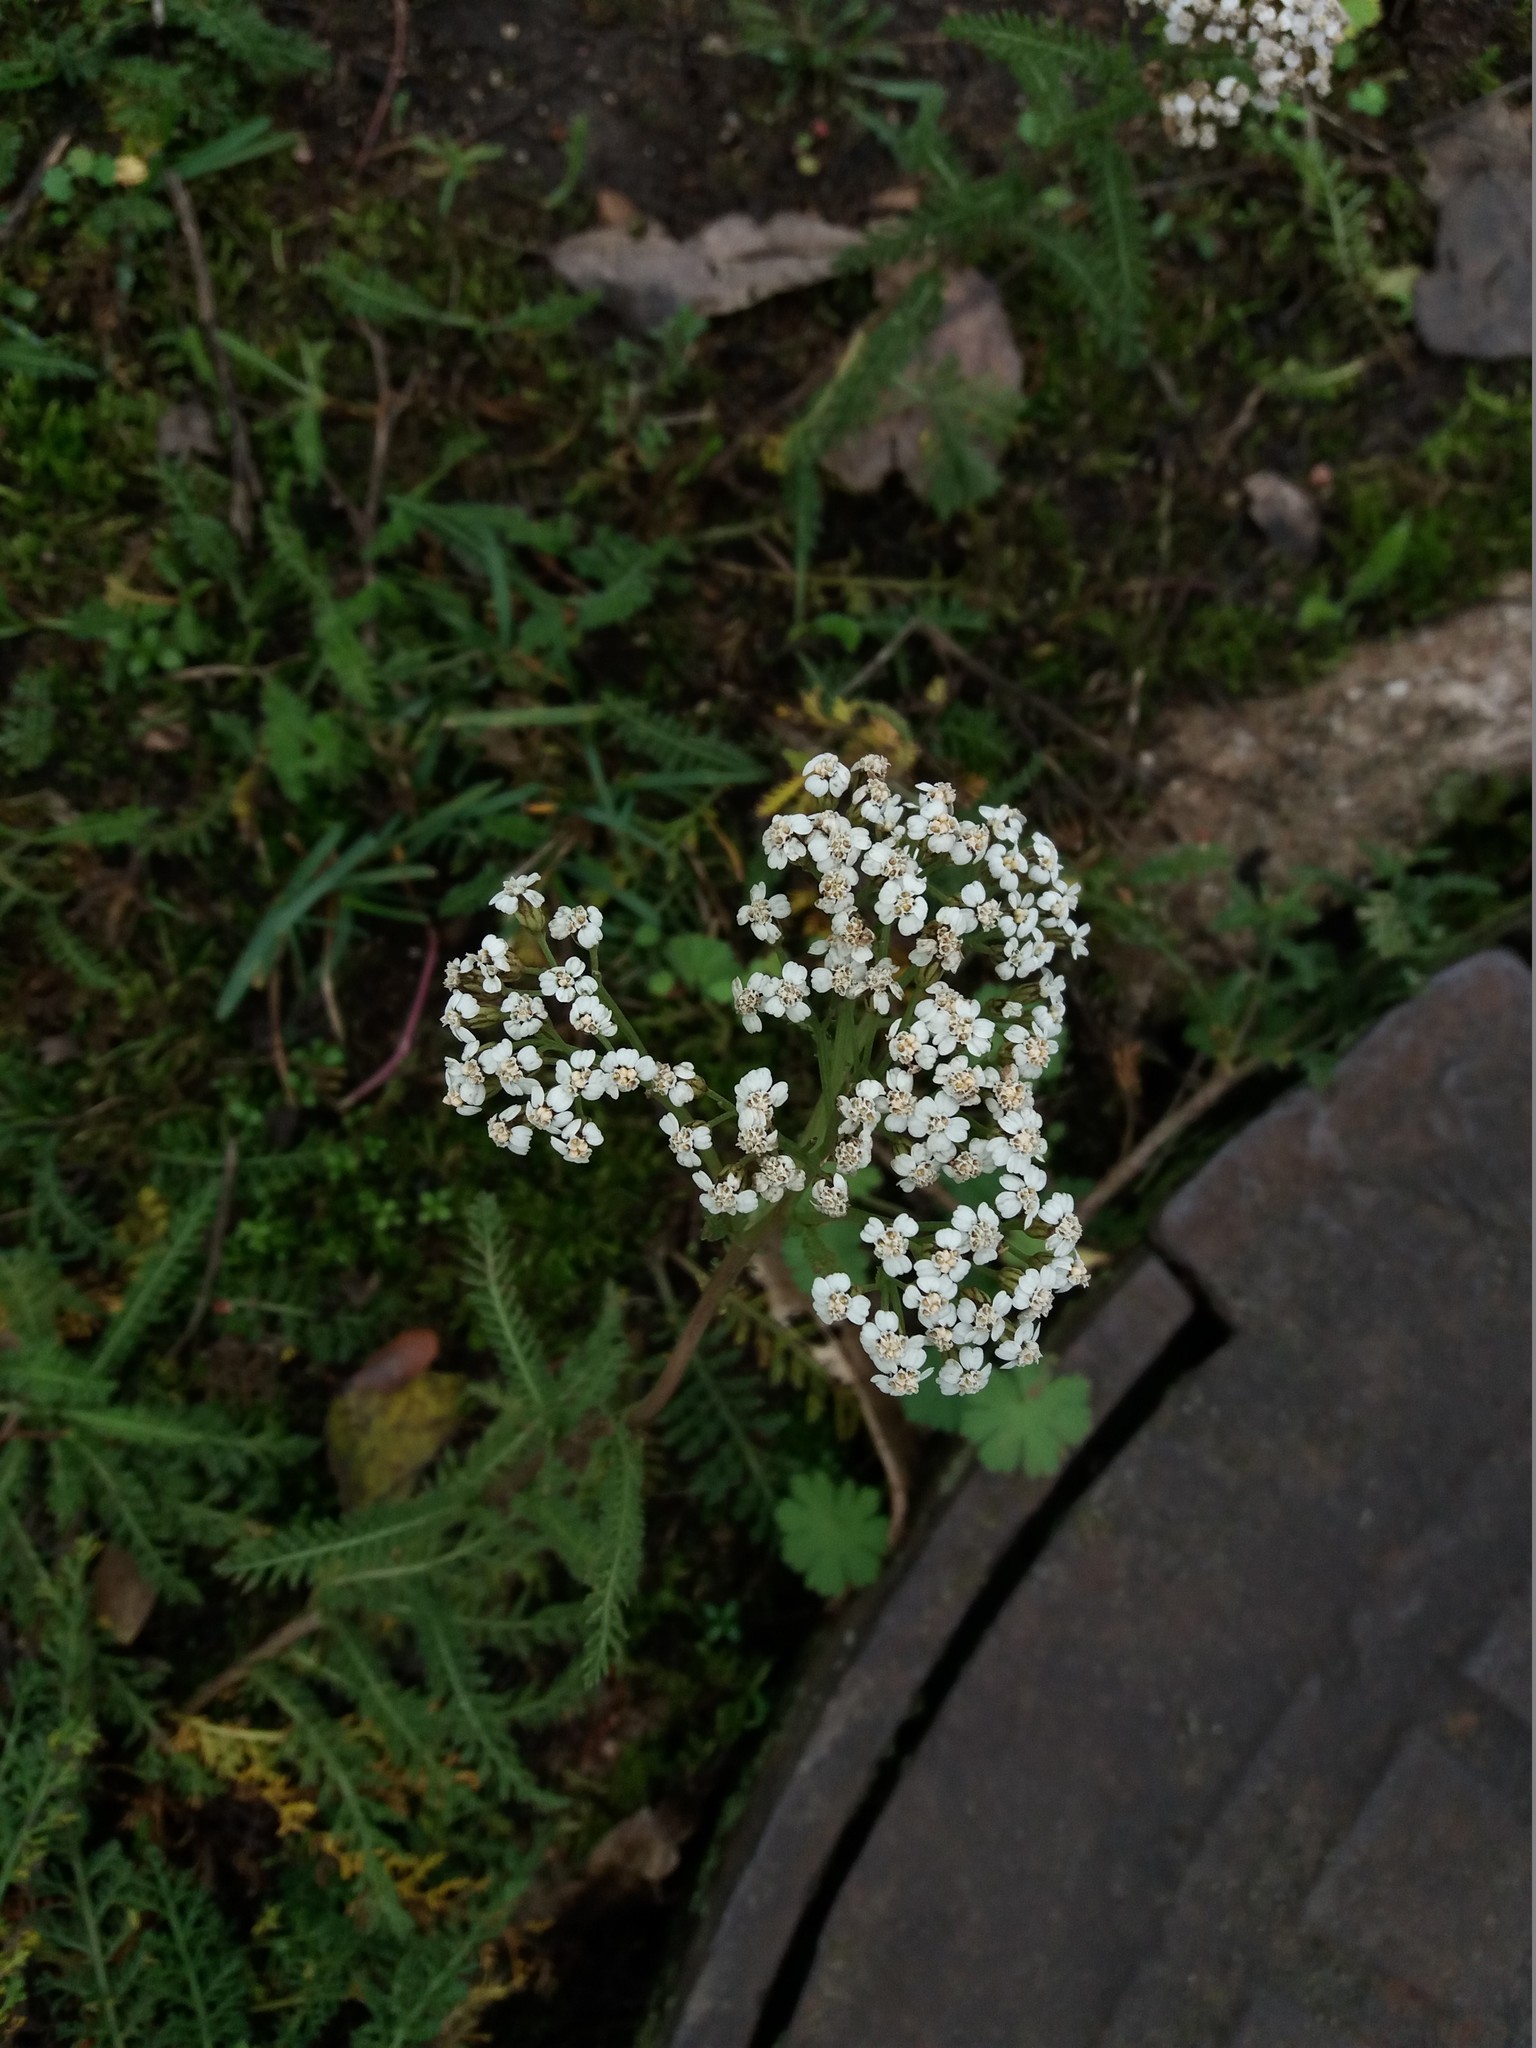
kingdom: Plantae
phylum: Tracheophyta
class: Magnoliopsida
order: Asterales
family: Asteraceae
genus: Achillea
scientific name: Achillea millefolium
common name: Yarrow
